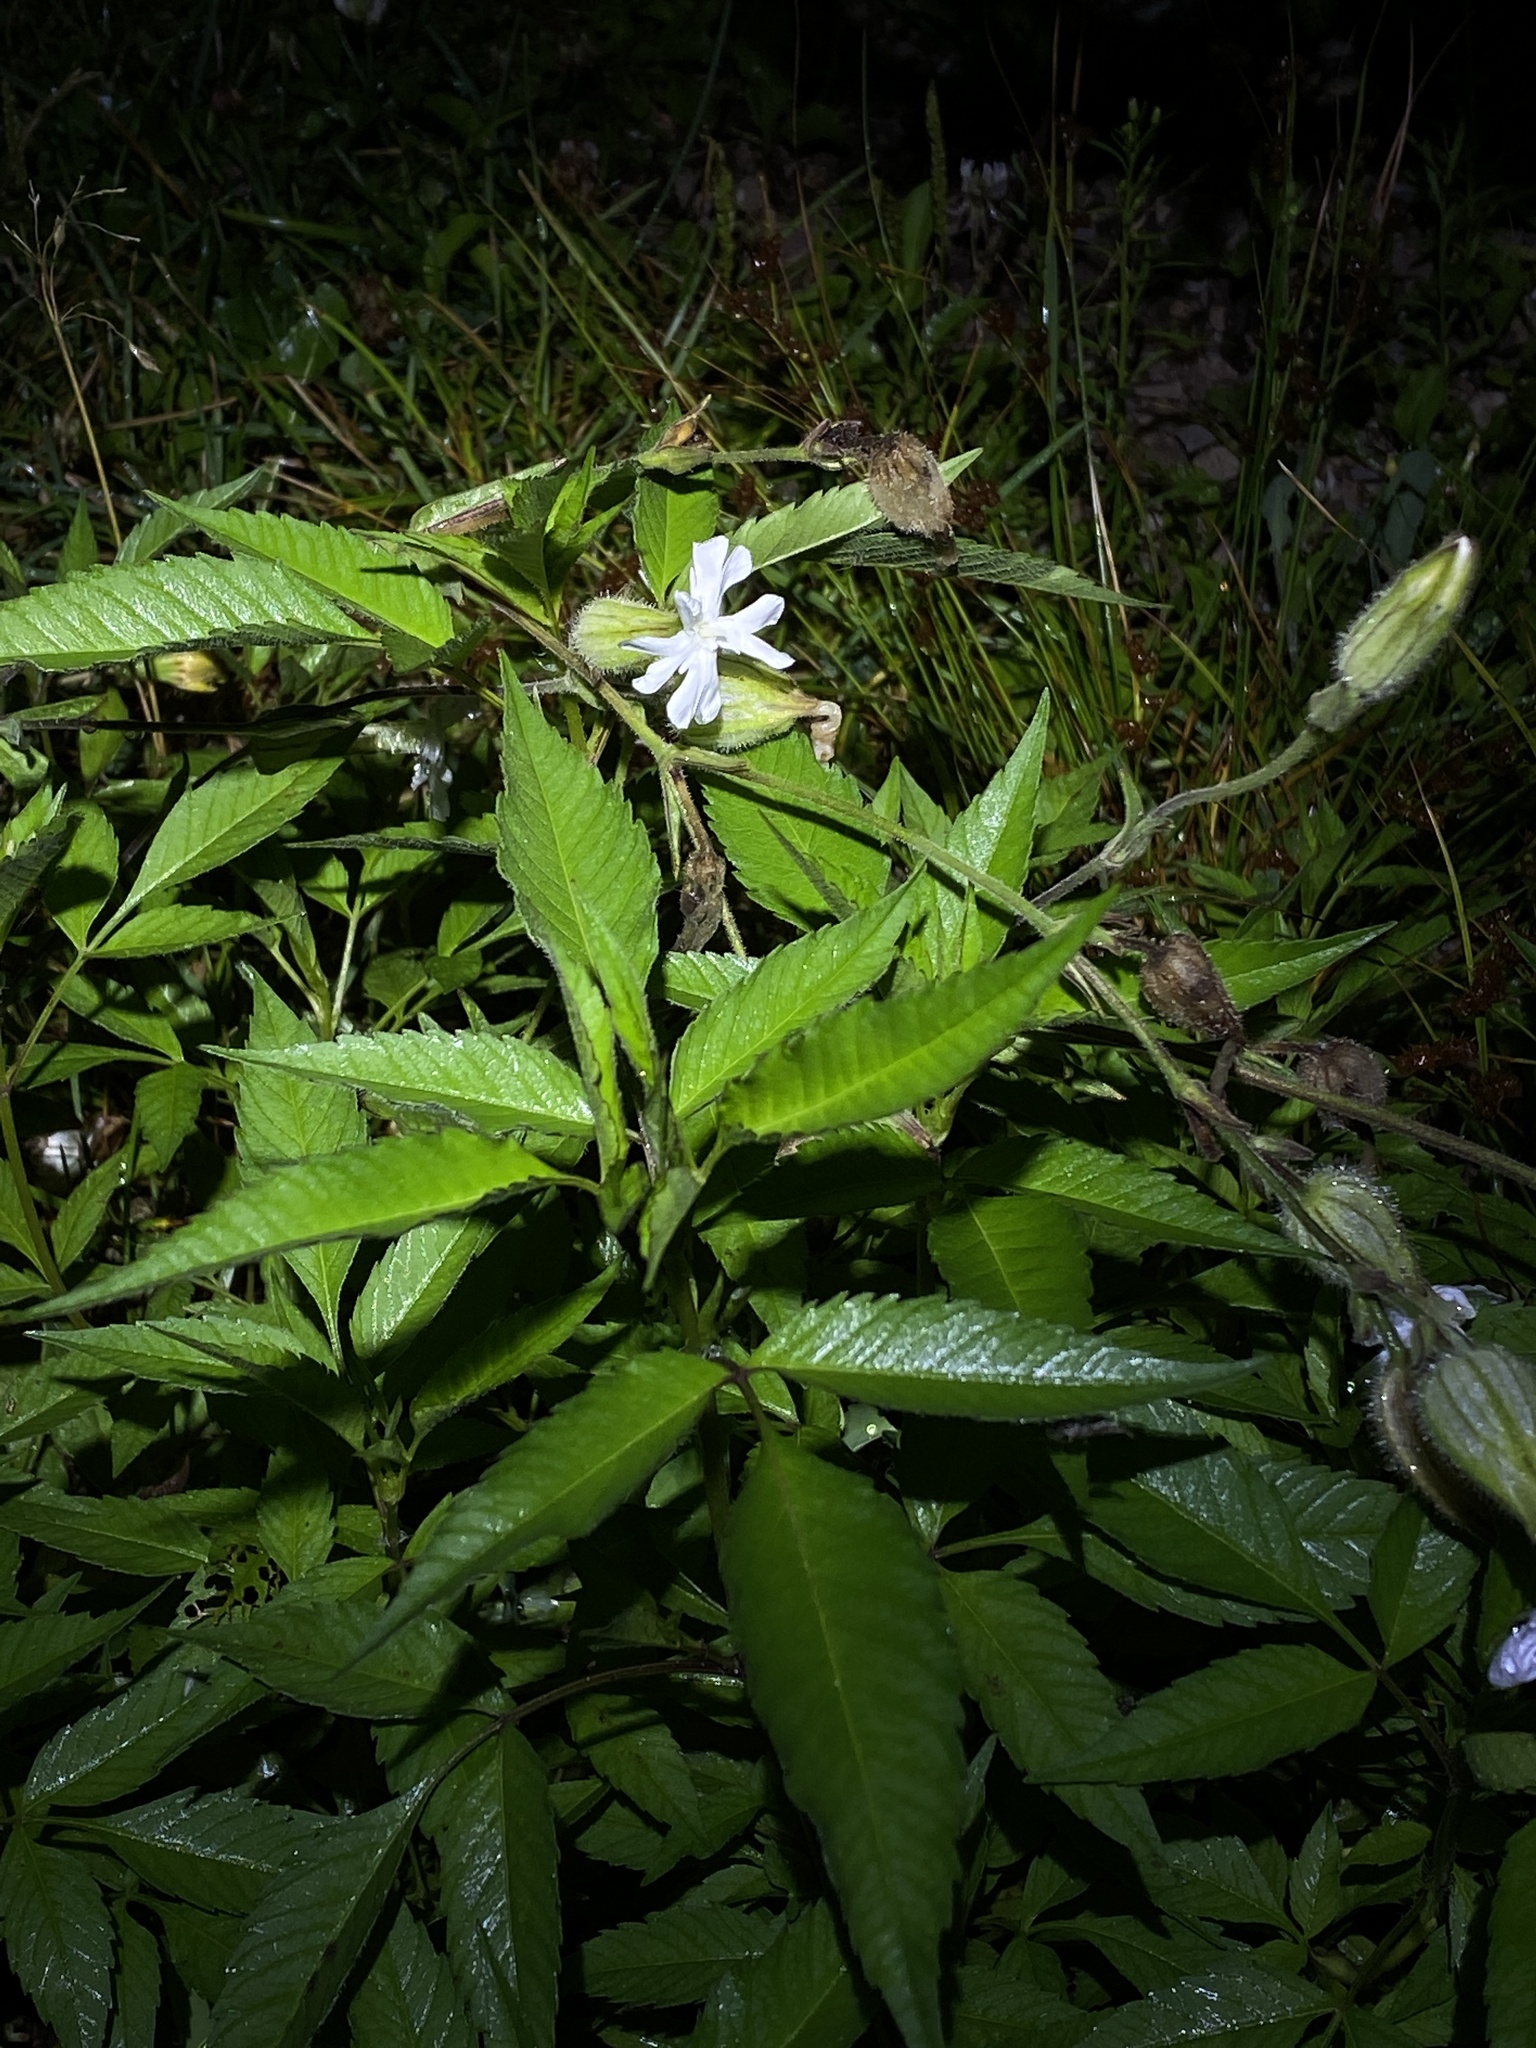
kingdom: Plantae
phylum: Tracheophyta
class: Magnoliopsida
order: Caryophyllales
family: Caryophyllaceae
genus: Silene
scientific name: Silene latifolia
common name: White campion
